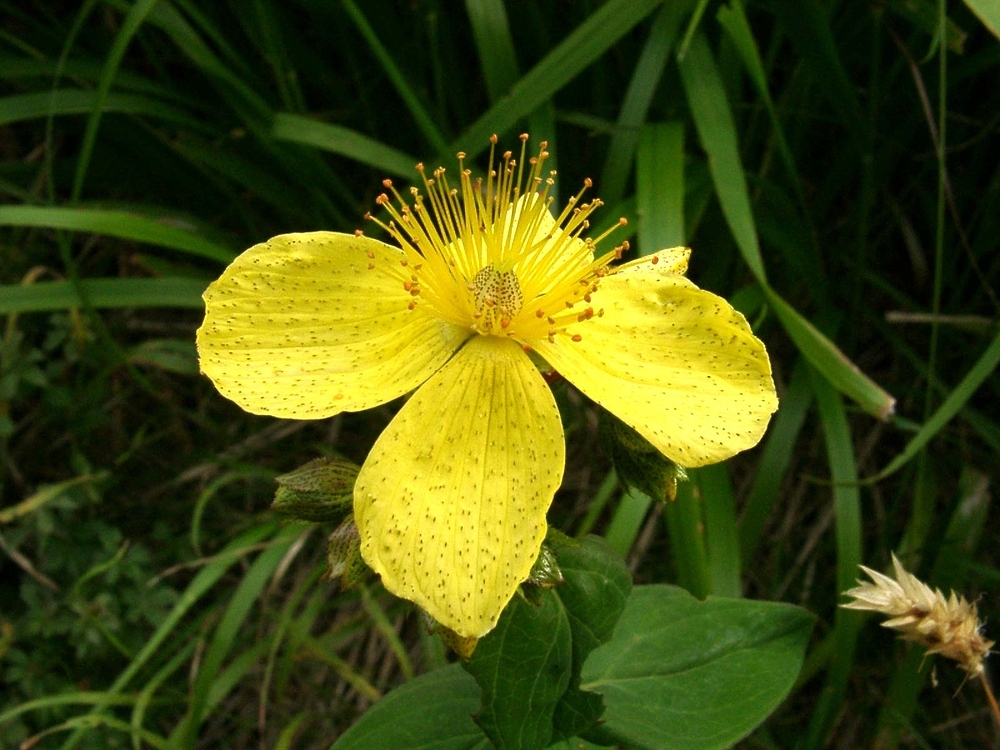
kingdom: Plantae
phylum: Tracheophyta
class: Magnoliopsida
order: Malpighiales
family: Hypericaceae
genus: Hypericum
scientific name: Hypericum richeri
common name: Alpine st john's-wort
